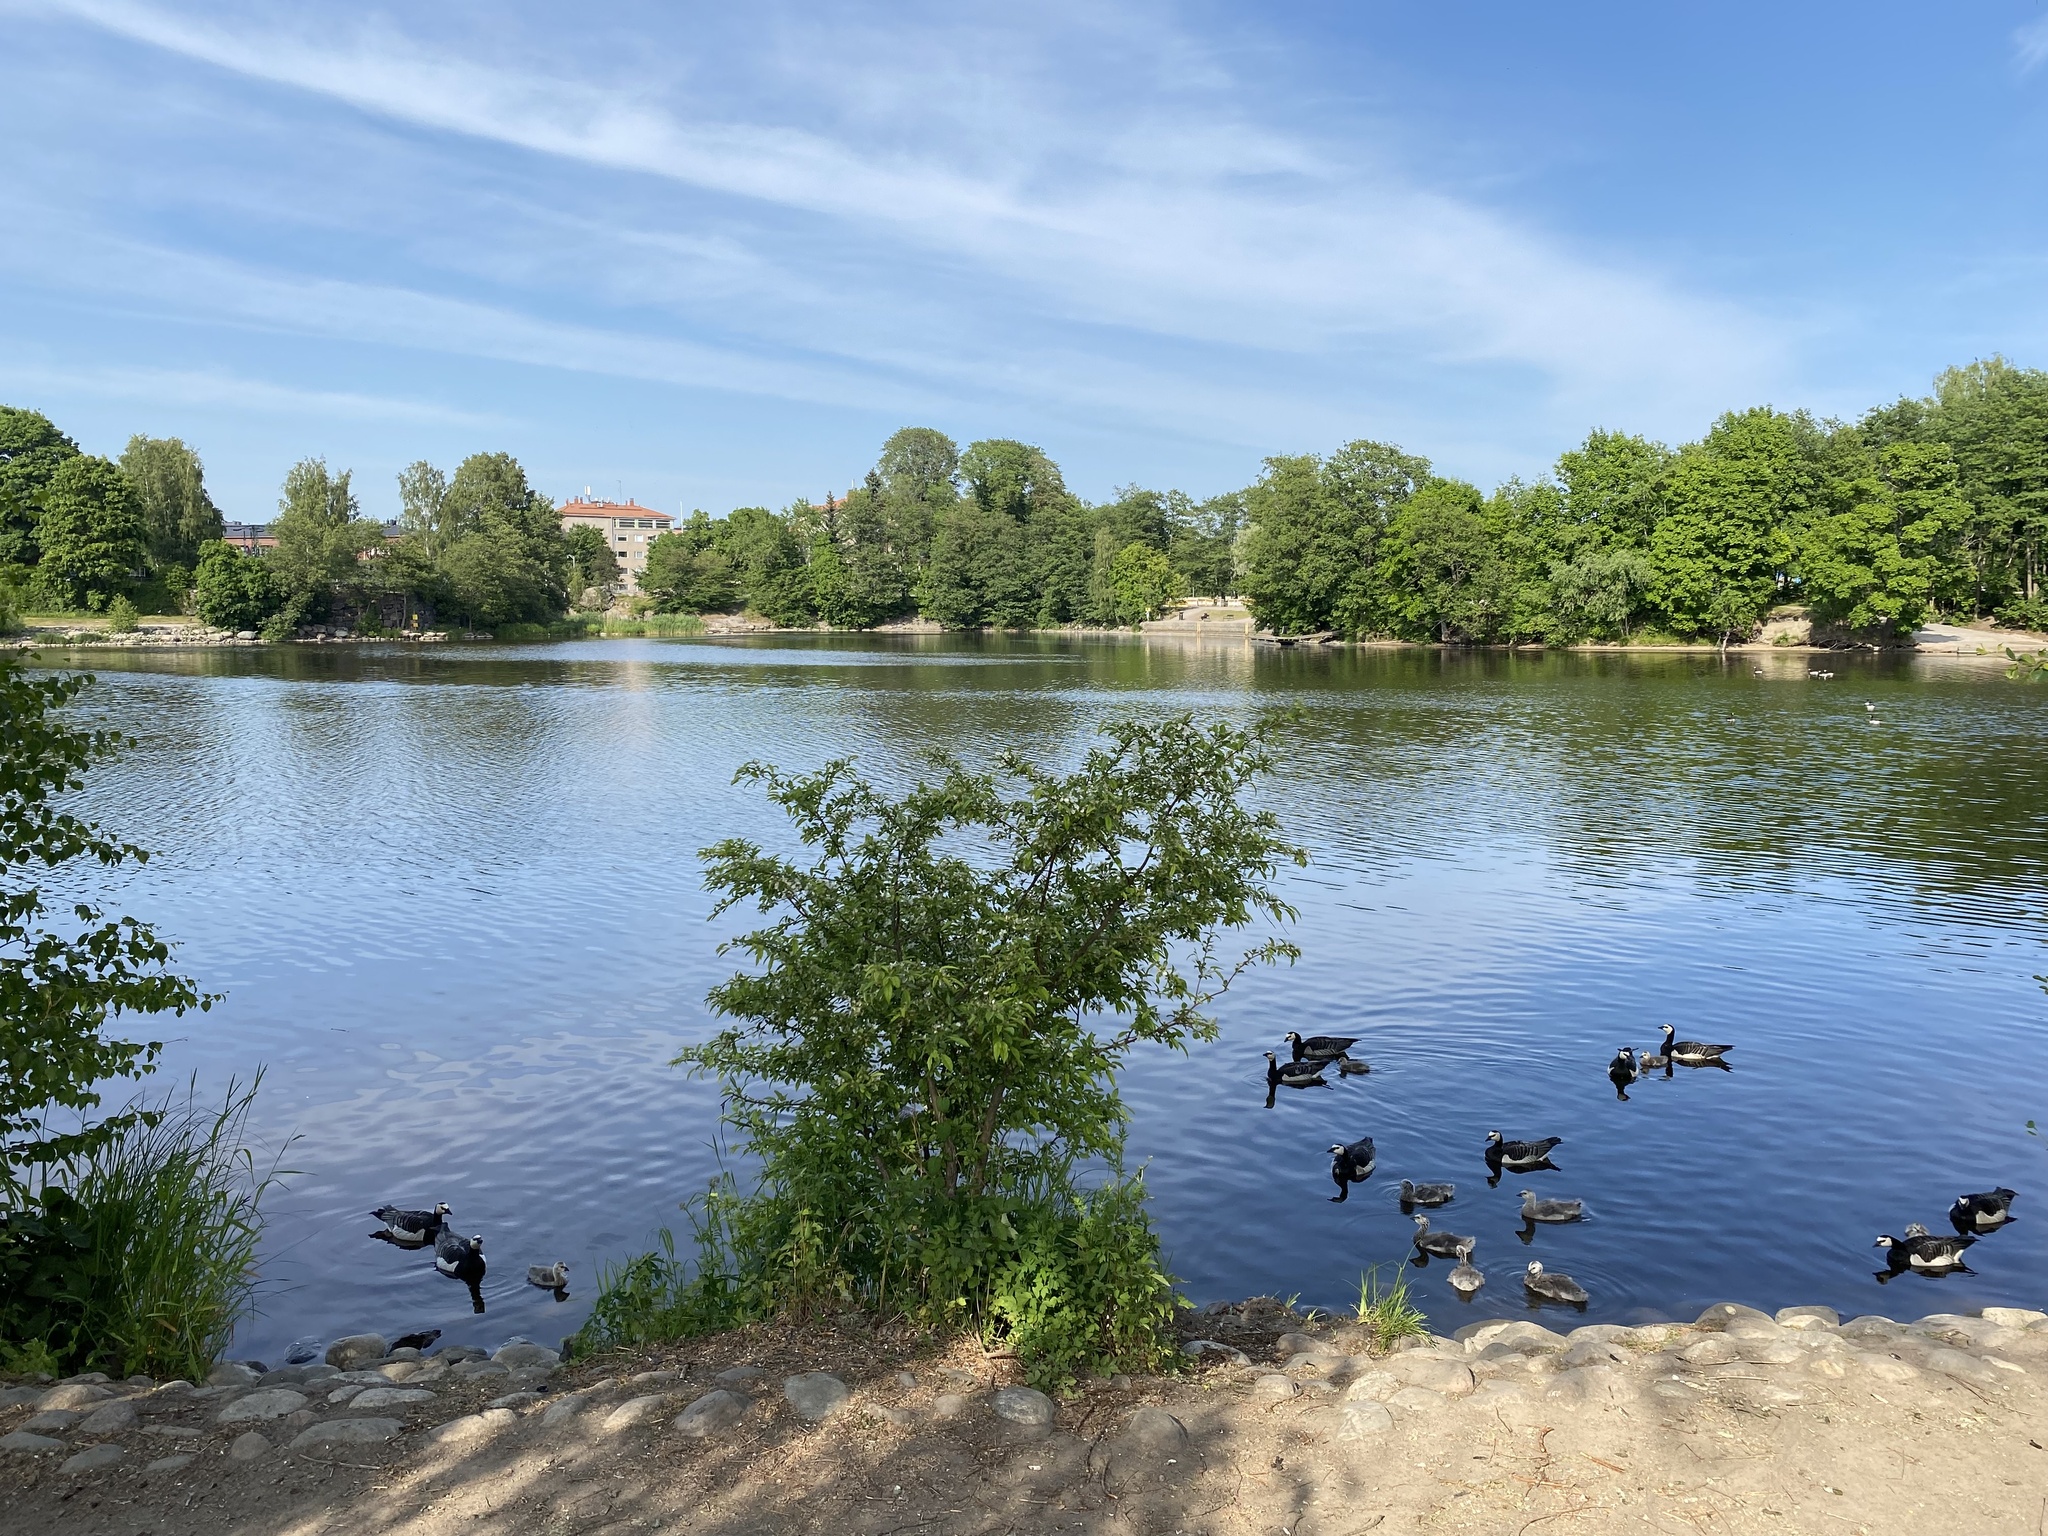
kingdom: Animalia
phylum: Chordata
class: Aves
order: Anseriformes
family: Anatidae
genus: Branta
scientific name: Branta leucopsis
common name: Barnacle goose
